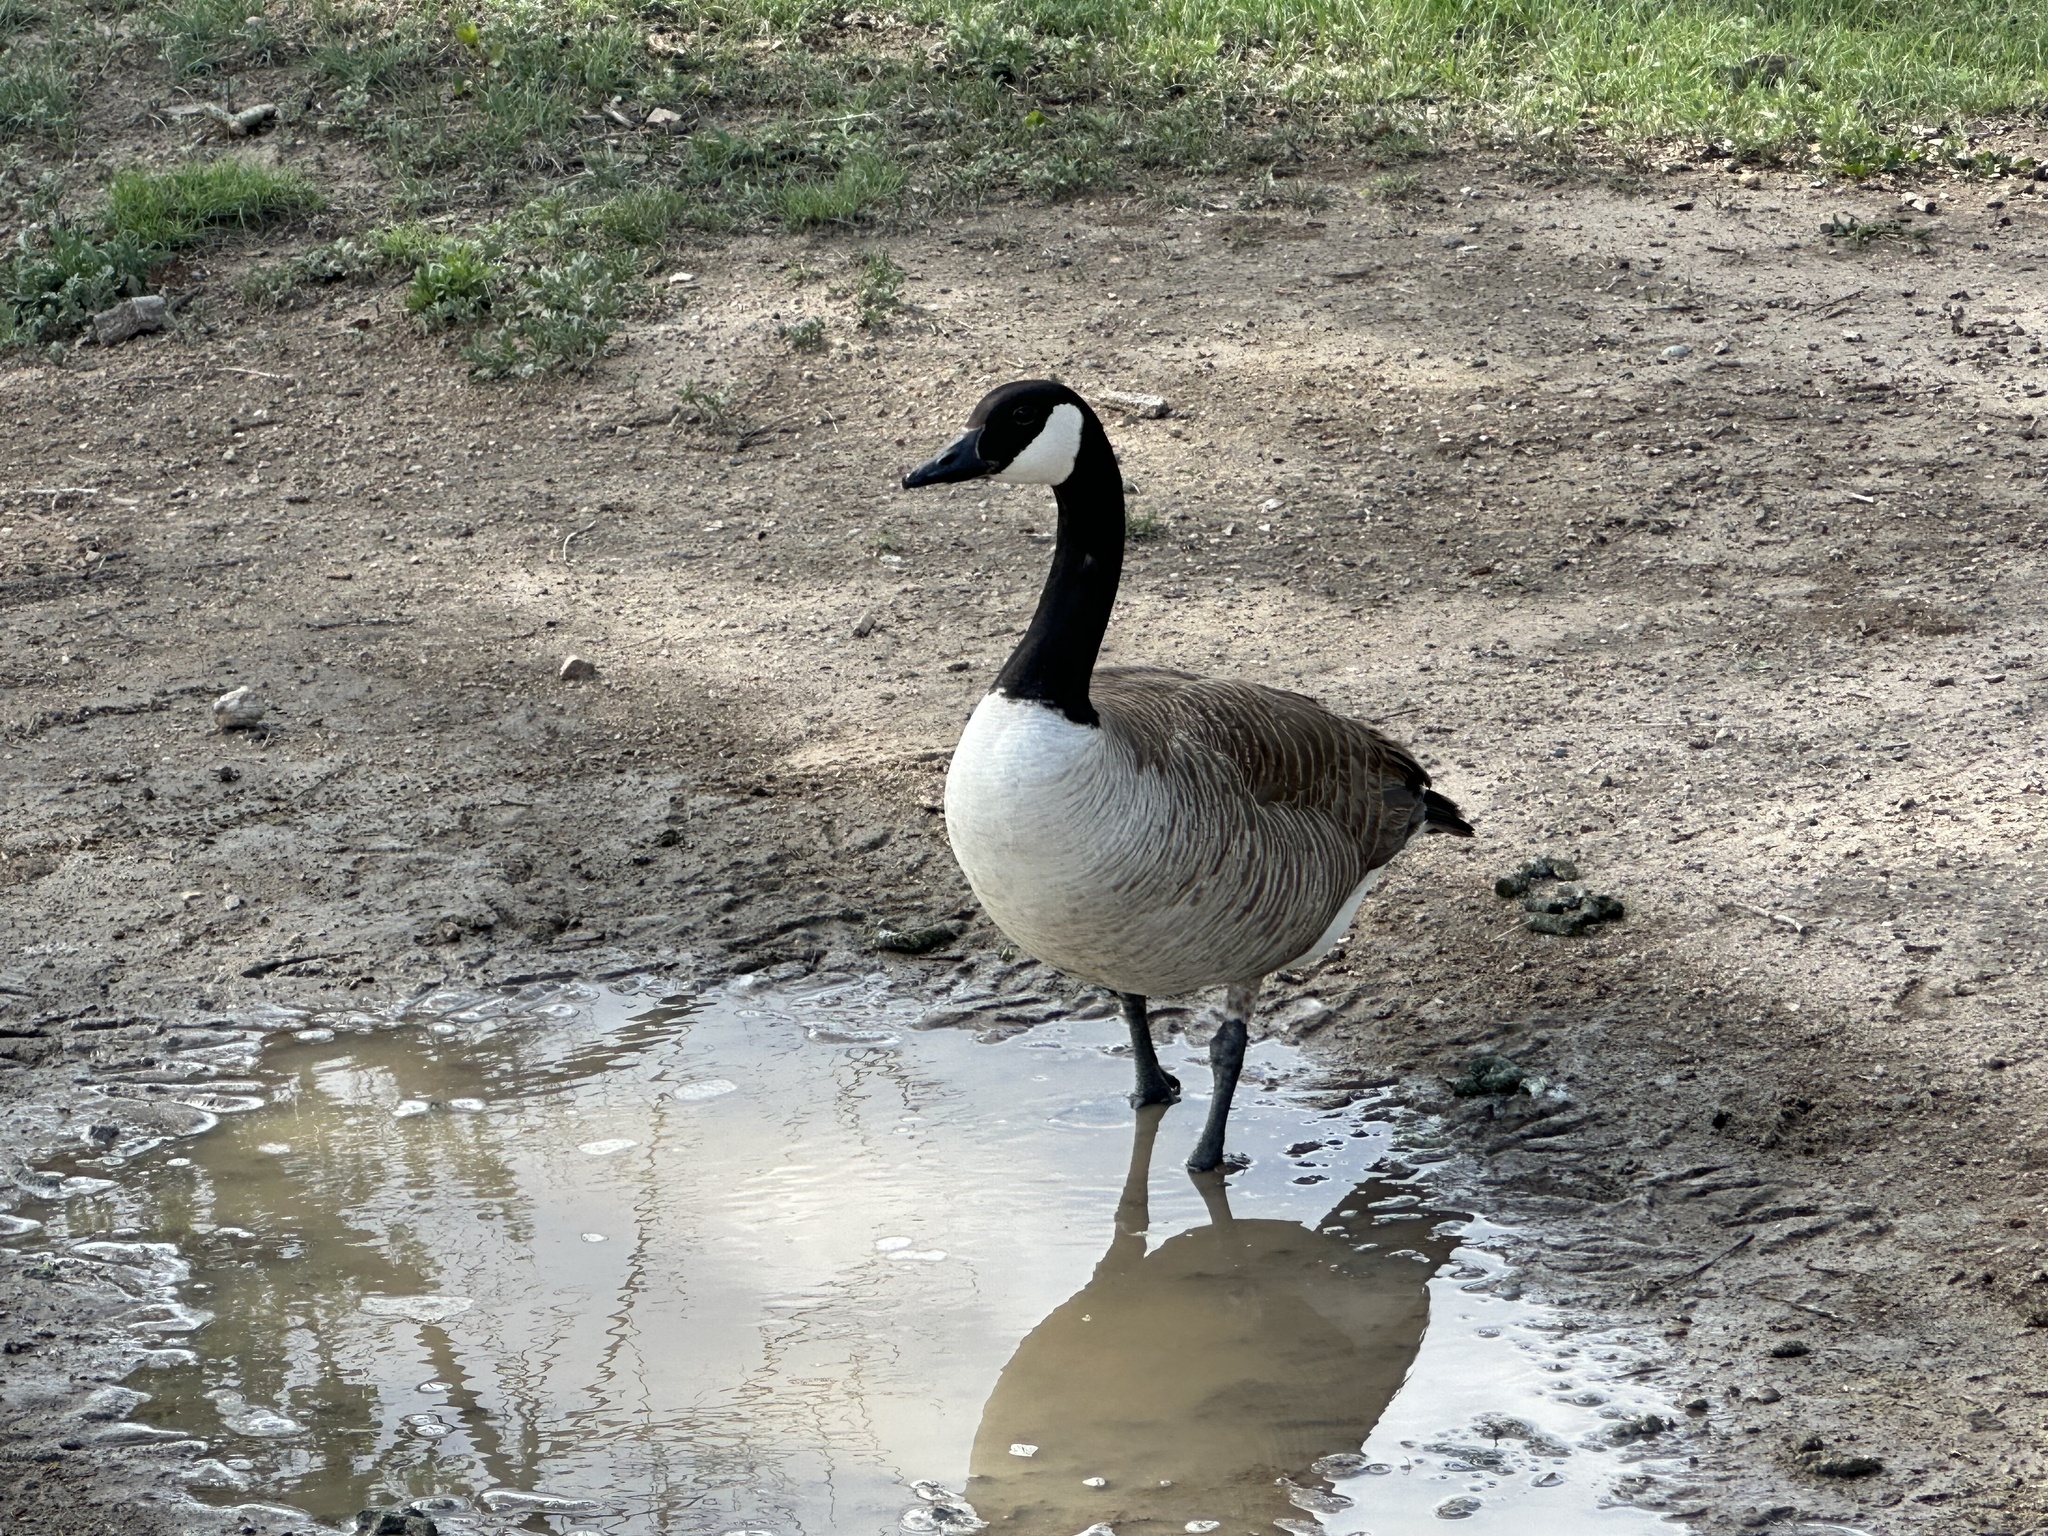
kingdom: Animalia
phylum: Chordata
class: Aves
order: Anseriformes
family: Anatidae
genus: Branta
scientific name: Branta canadensis
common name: Canada goose
